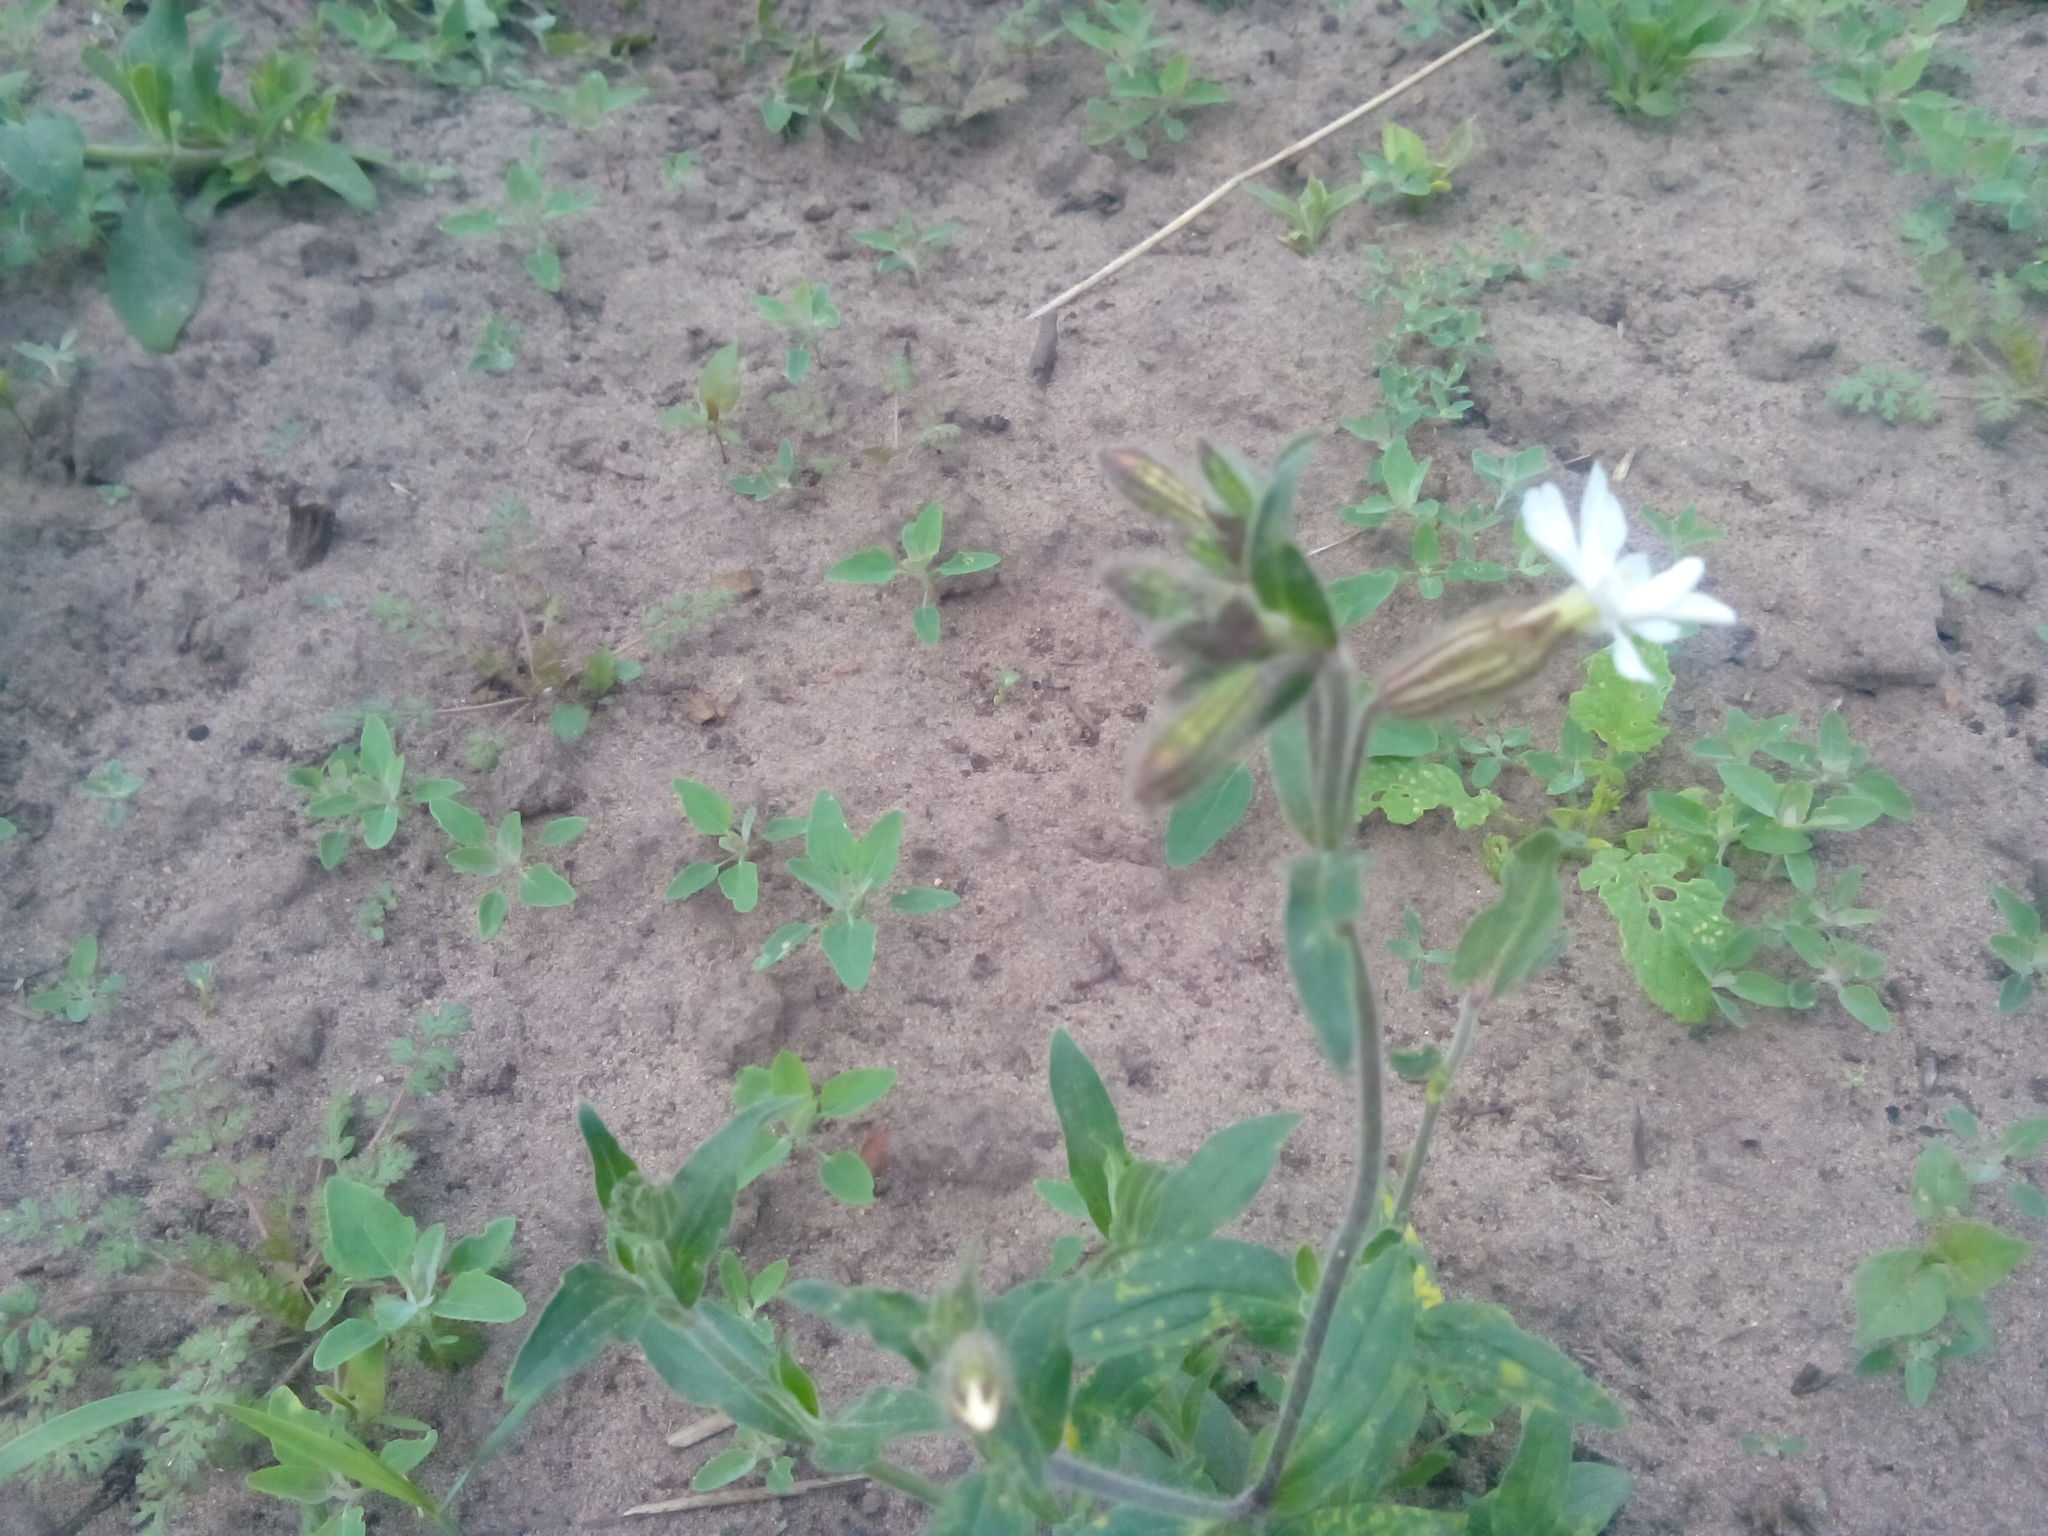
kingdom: Plantae
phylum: Tracheophyta
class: Magnoliopsida
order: Caryophyllales
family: Caryophyllaceae
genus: Silene
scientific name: Silene latifolia
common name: White campion
